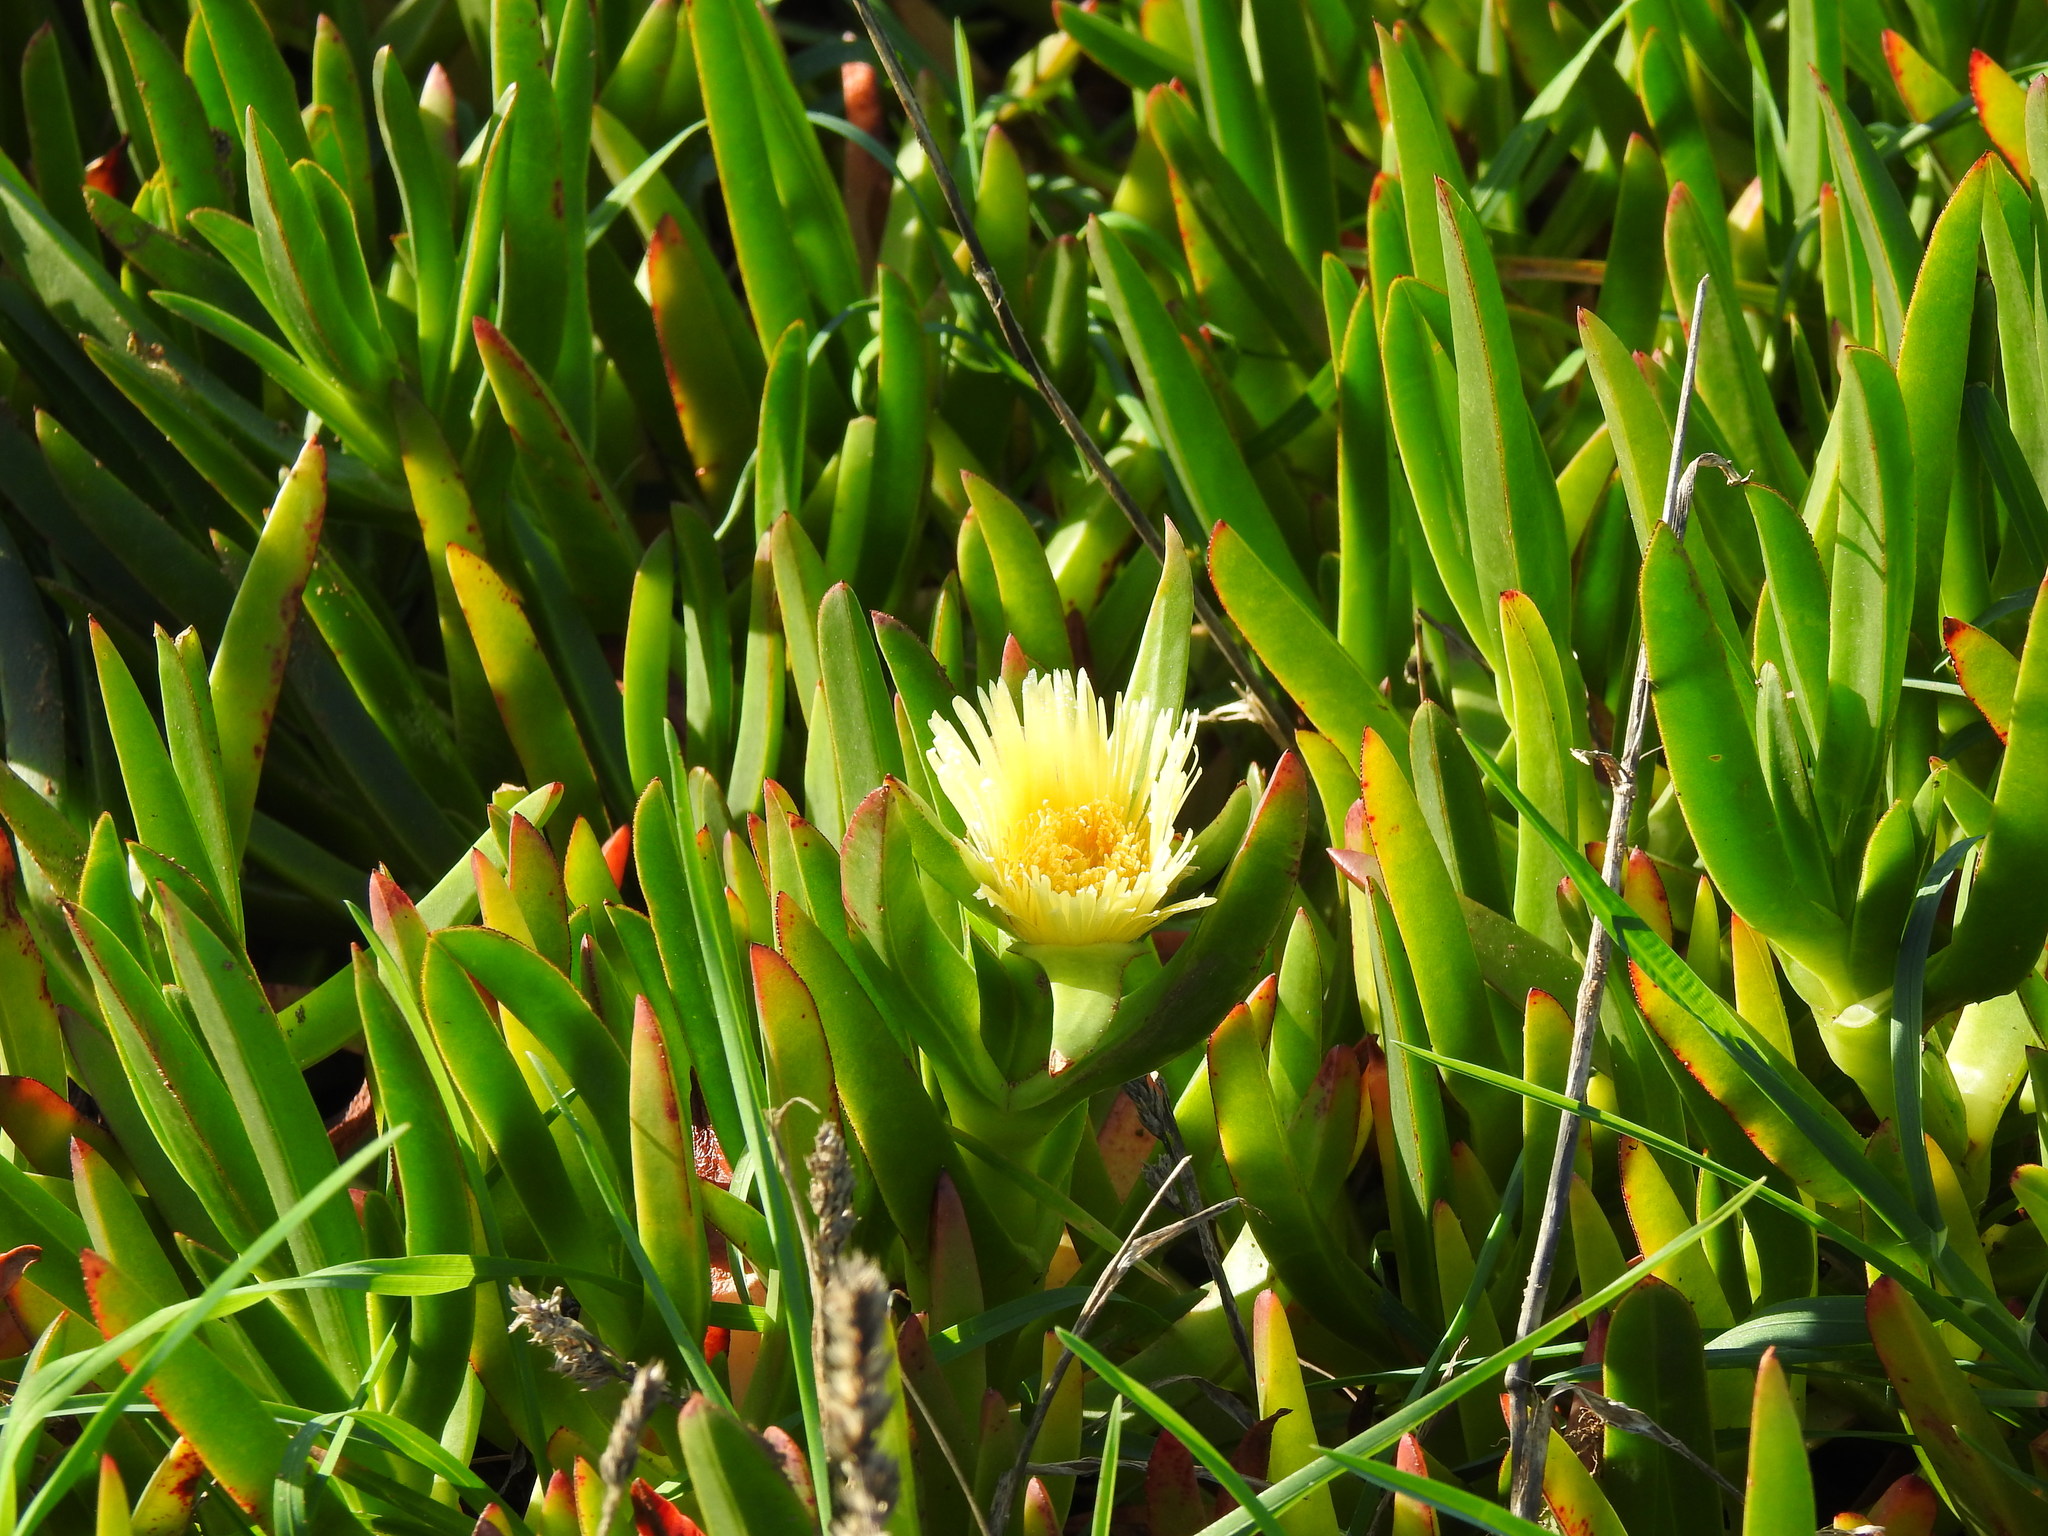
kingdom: Plantae
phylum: Tracheophyta
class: Magnoliopsida
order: Caryophyllales
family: Aizoaceae
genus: Carpobrotus
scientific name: Carpobrotus edulis
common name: Hottentot-fig
